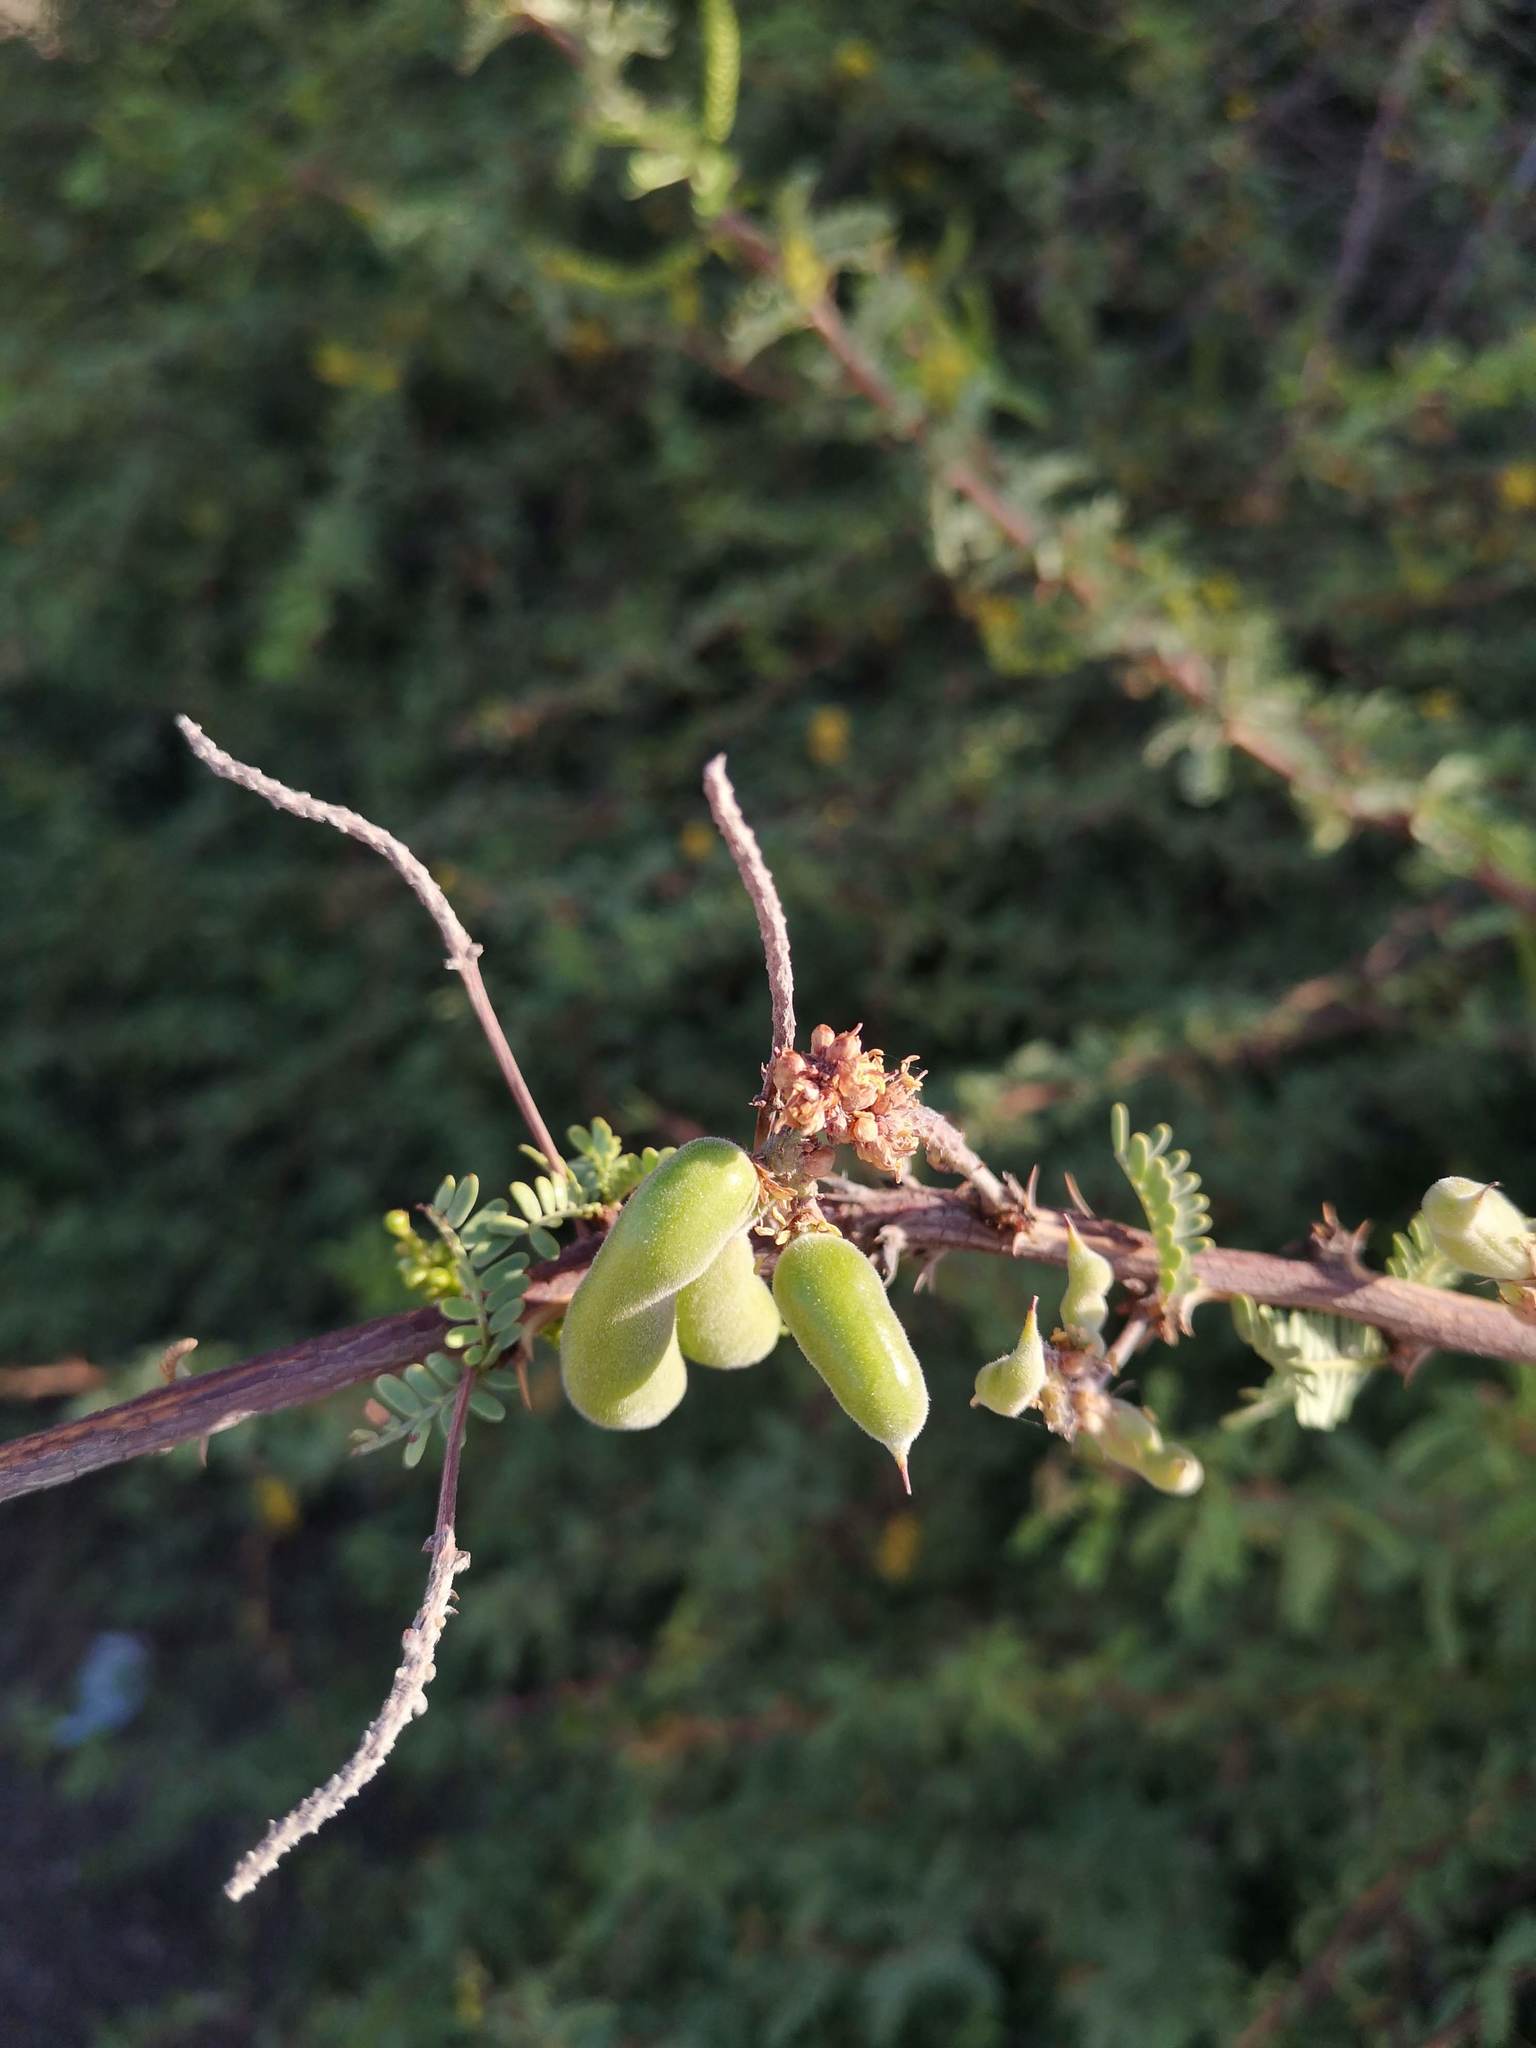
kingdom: Plantae
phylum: Tracheophyta
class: Magnoliopsida
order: Fabales
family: Fabaceae
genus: Prosopis
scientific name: Prosopis tamarugo
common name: Tamarugo
